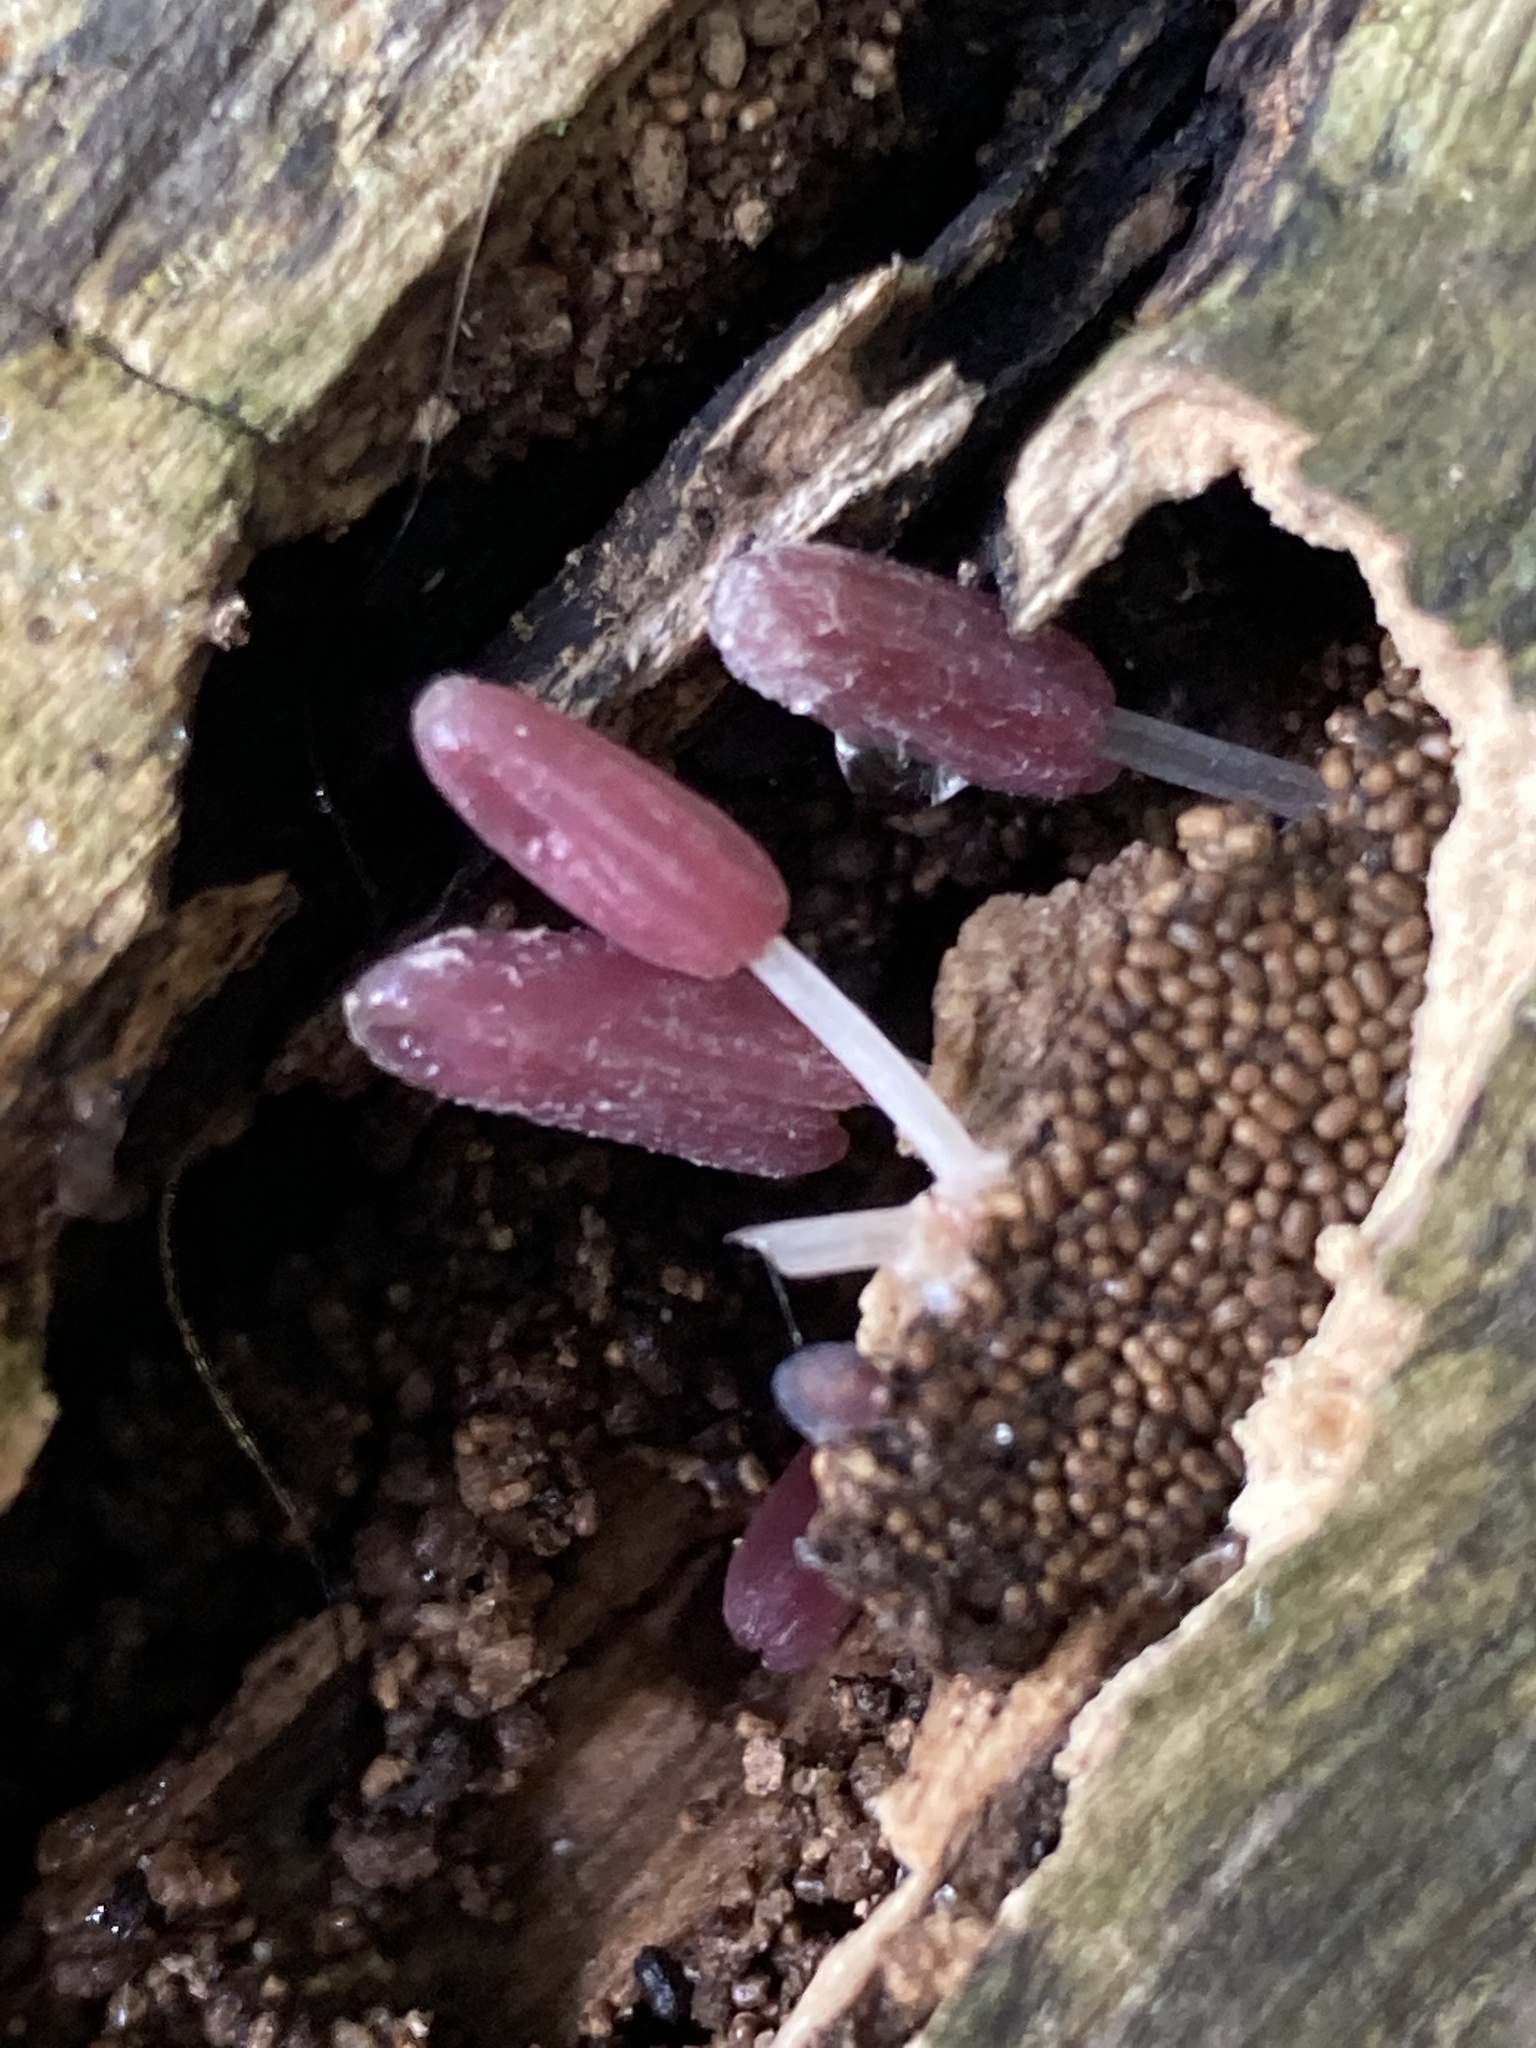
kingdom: Fungi
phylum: Basidiomycota
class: Agaricomycetes
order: Agaricales
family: Psathyrellaceae
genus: Coprinopsis
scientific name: Coprinopsis clastophylla
